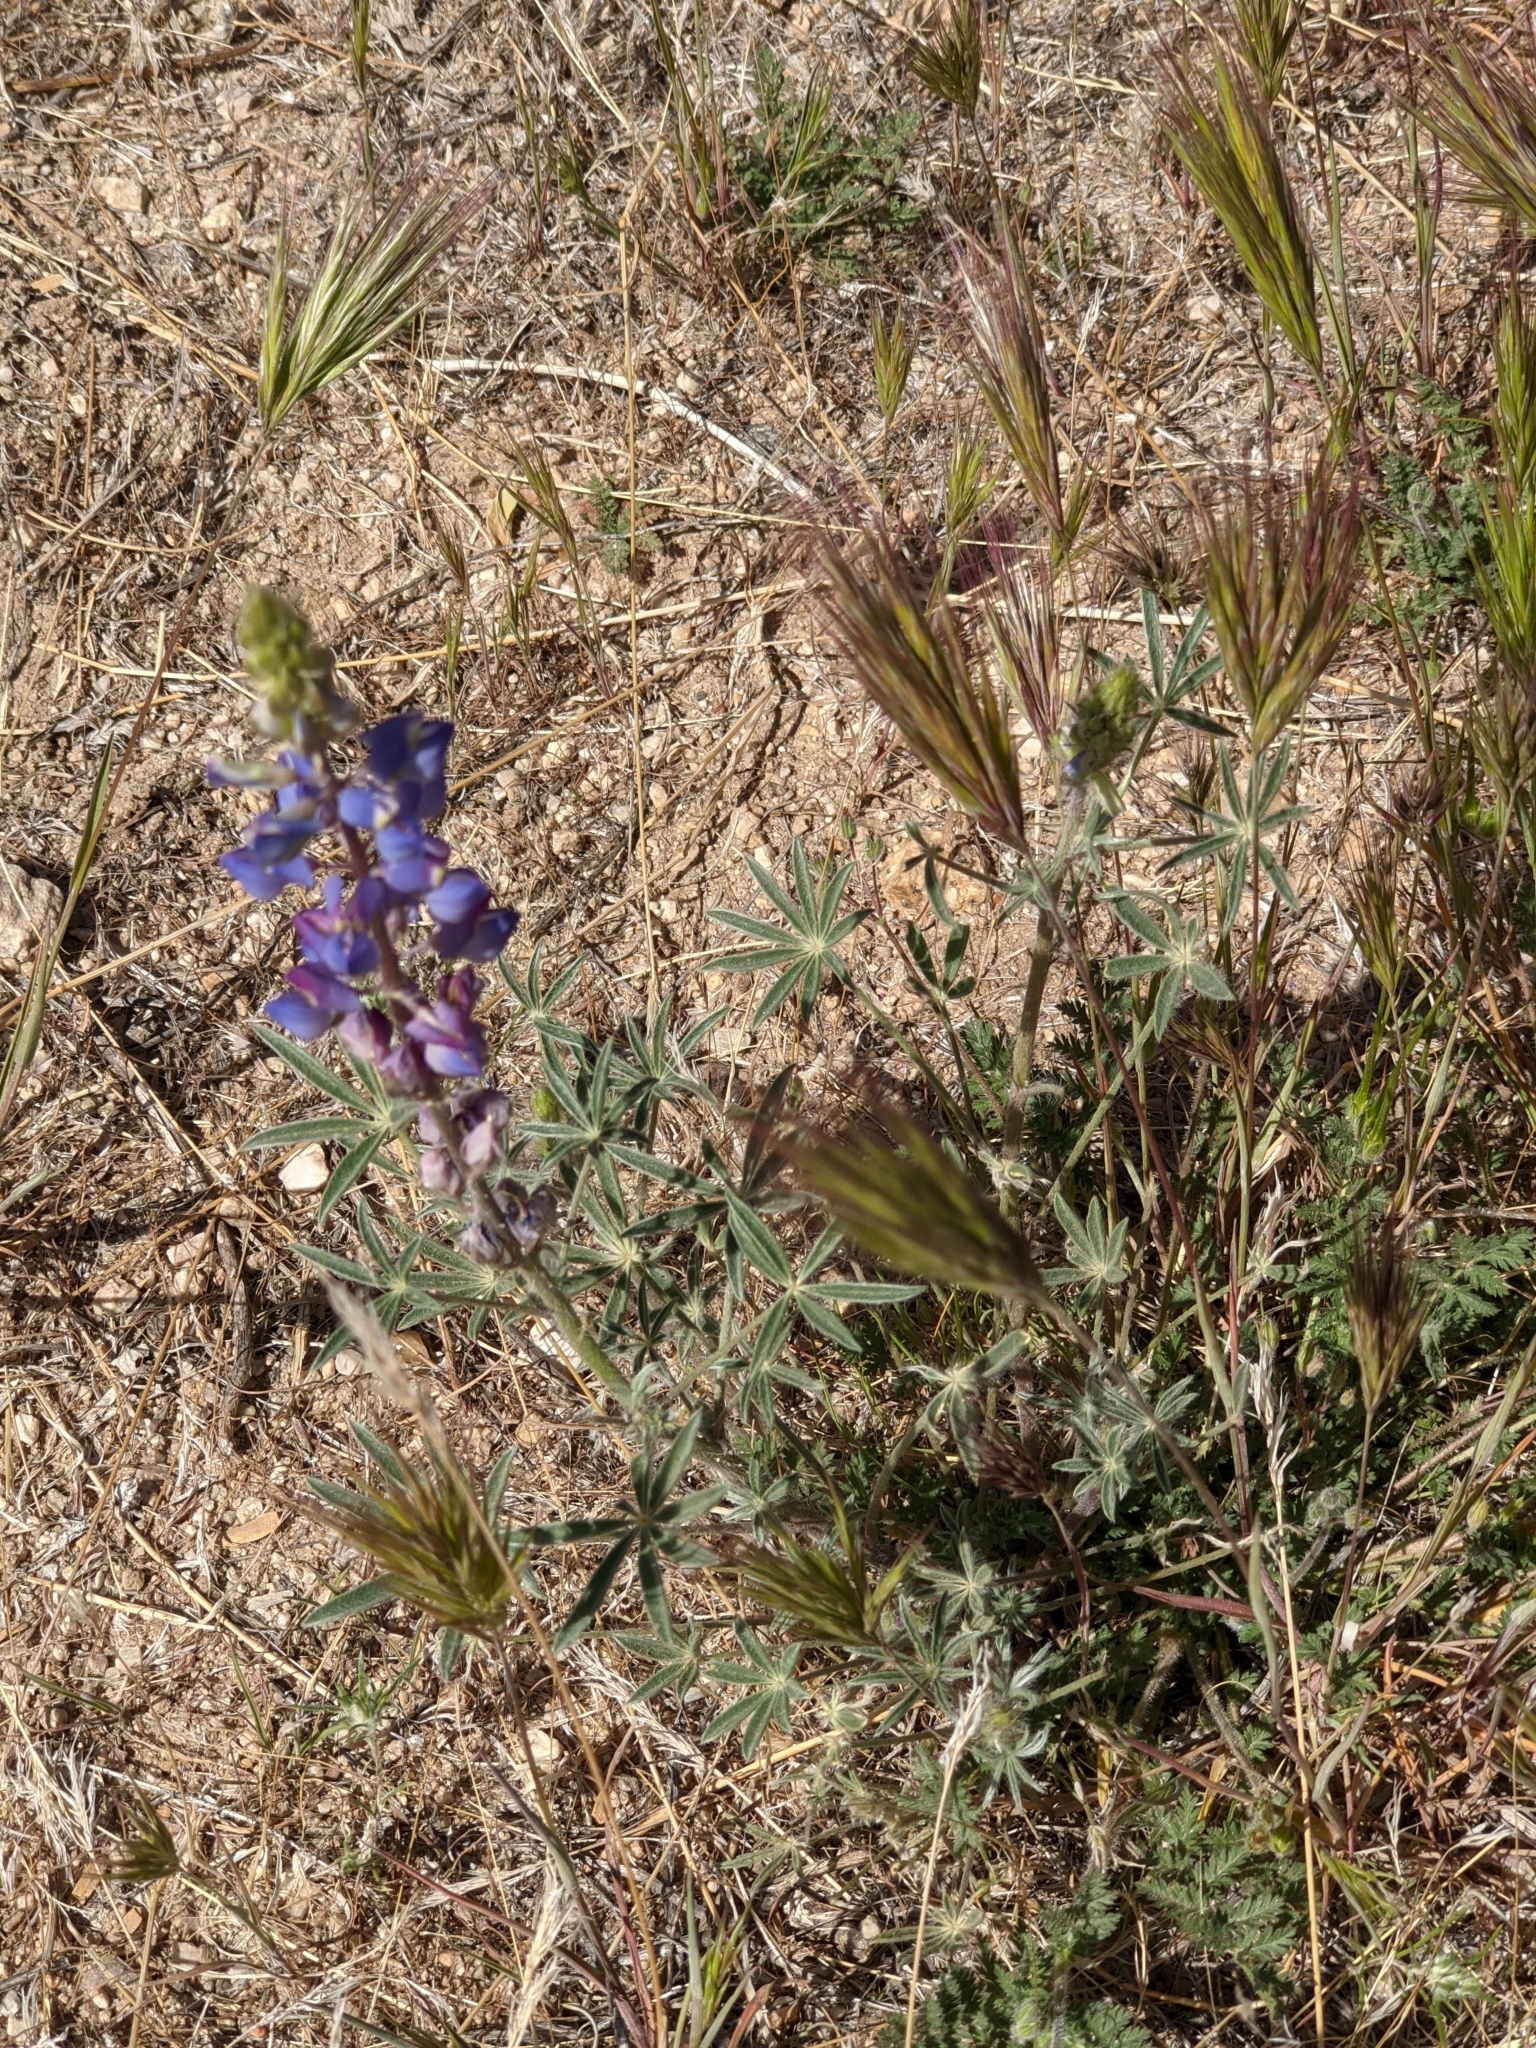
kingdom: Plantae
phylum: Tracheophyta
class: Magnoliopsida
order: Fabales
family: Fabaceae
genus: Lupinus
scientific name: Lupinus sparsiflorus
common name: Coulter's lupine
